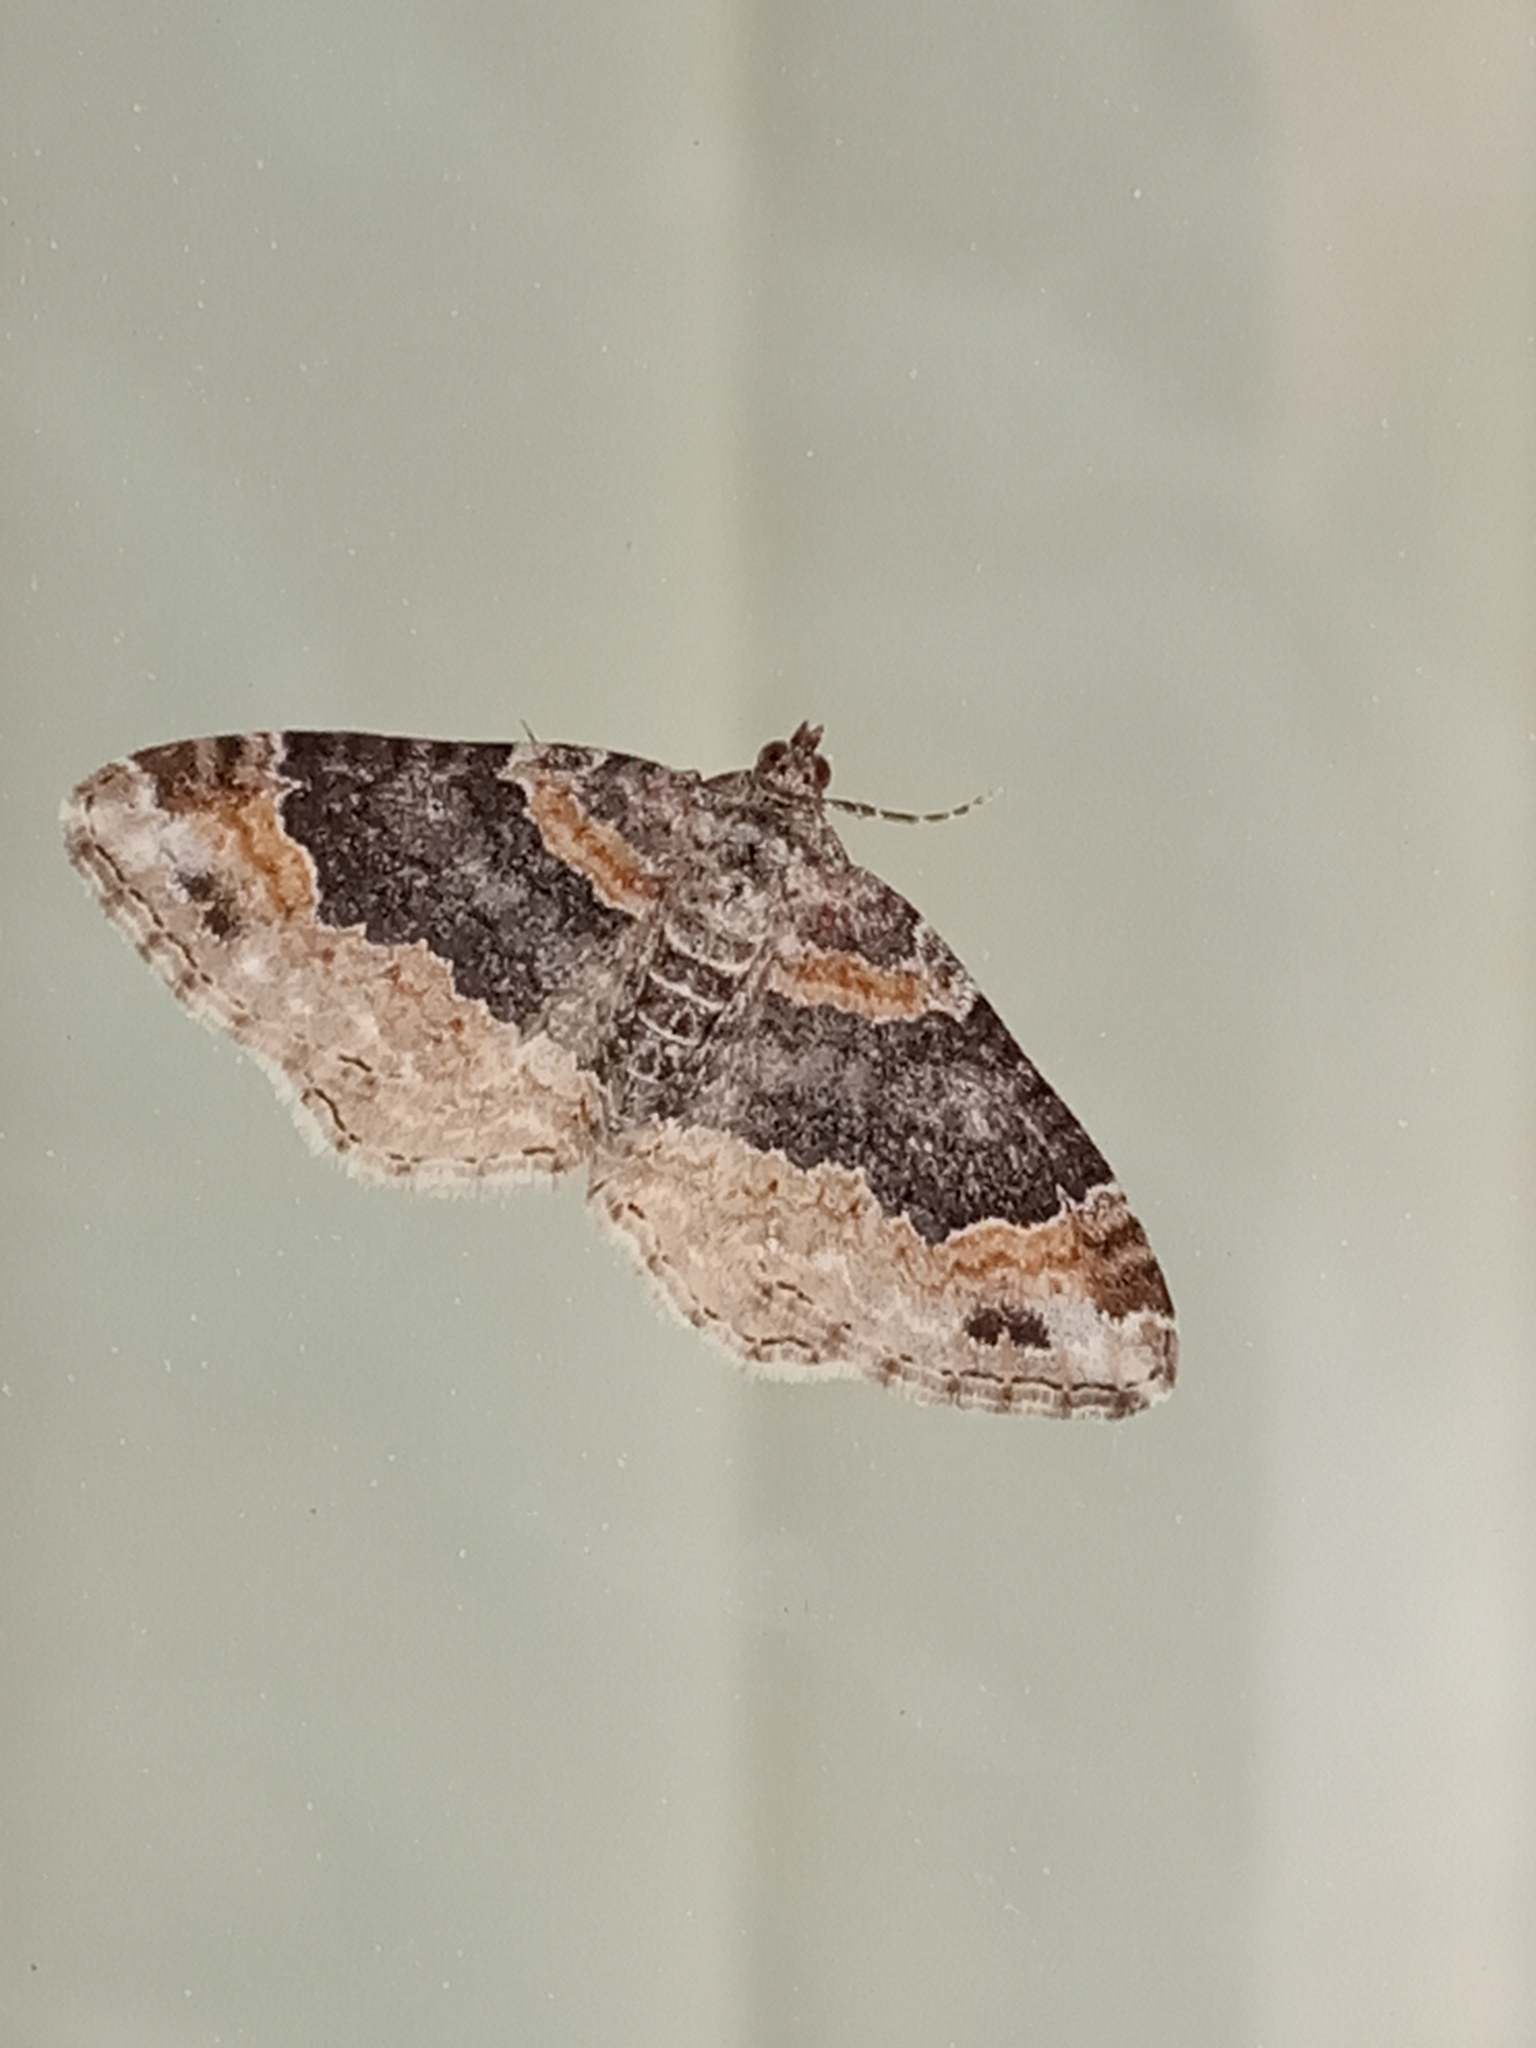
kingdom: Animalia
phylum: Arthropoda
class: Insecta
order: Lepidoptera
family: Geometridae
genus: Xanthorhoe
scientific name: Xanthorhoe ferrugata
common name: Dark-barred twin-spot carpet
